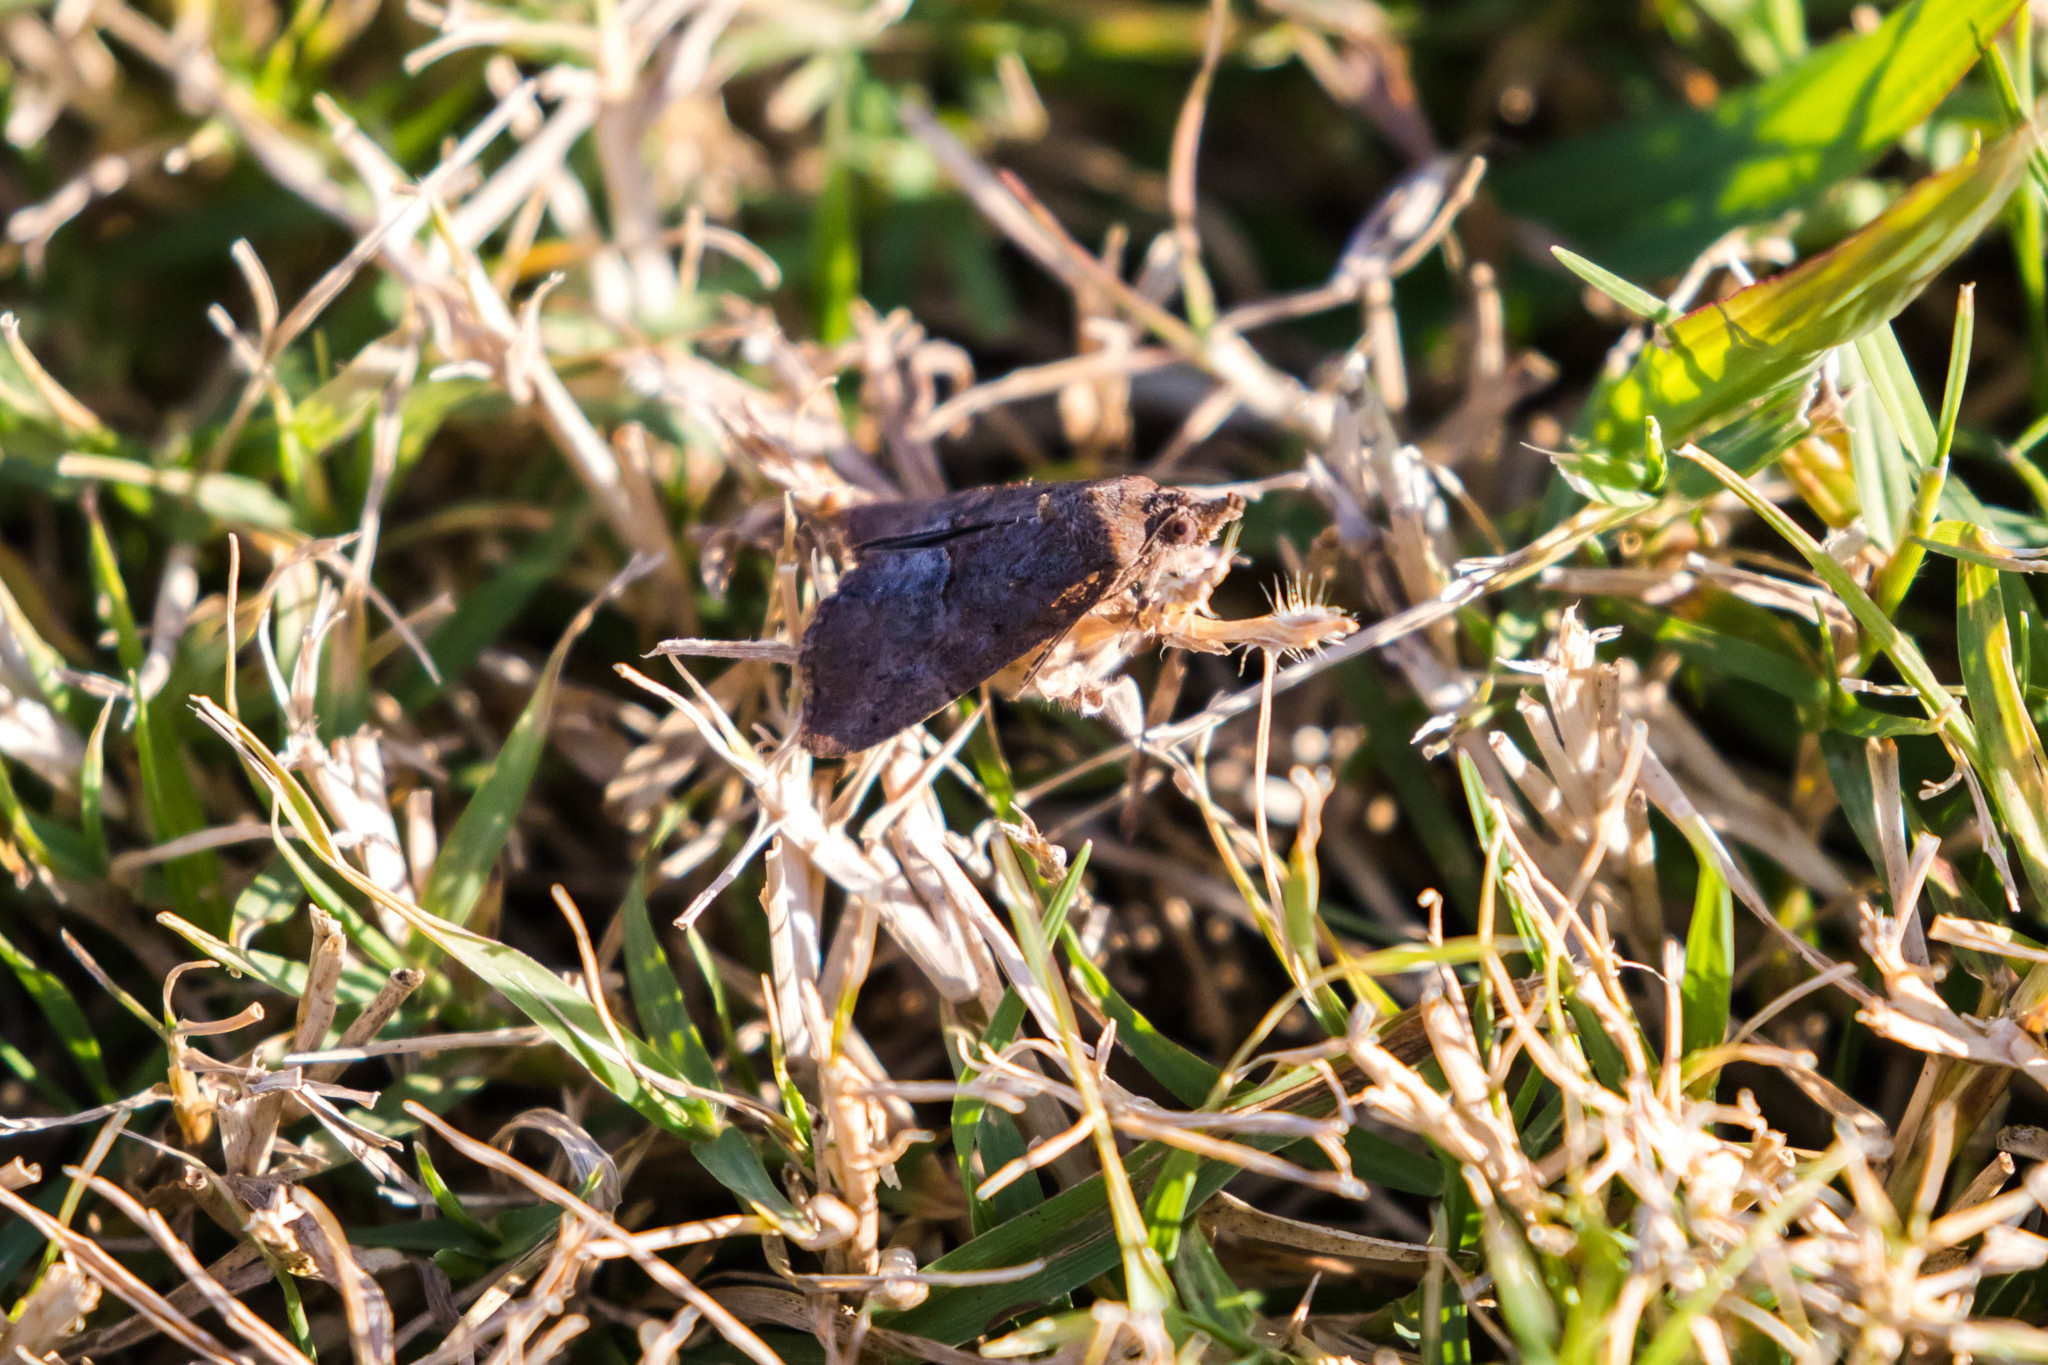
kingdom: Animalia
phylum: Arthropoda
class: Insecta
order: Lepidoptera
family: Erebidae
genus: Hypena
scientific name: Hypena scabra
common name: Green cloverworm
